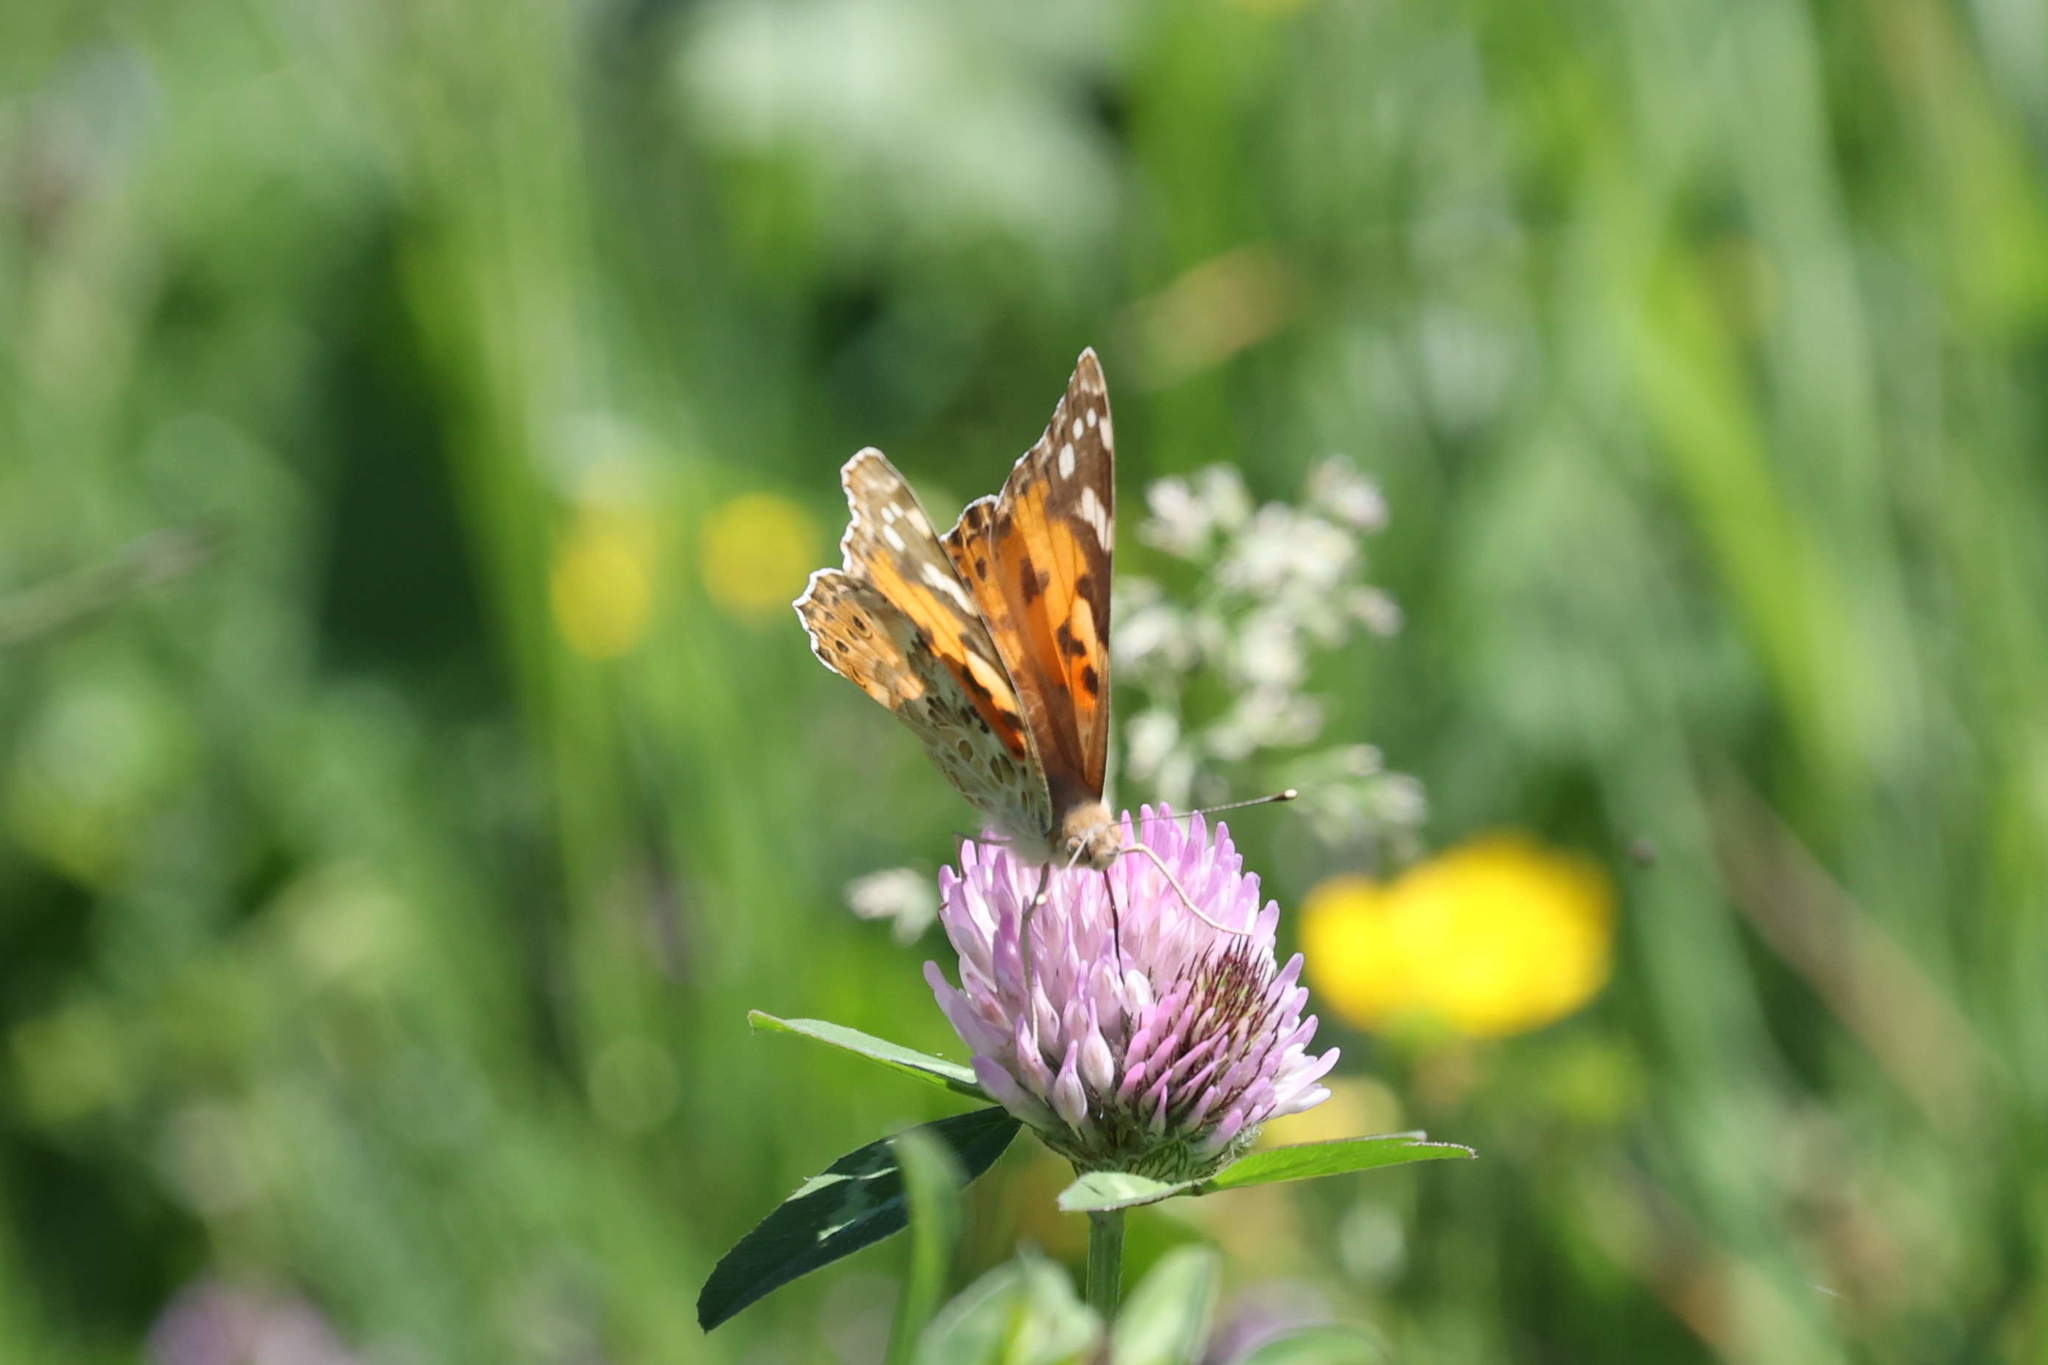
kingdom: Animalia
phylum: Arthropoda
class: Insecta
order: Lepidoptera
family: Nymphalidae
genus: Vanessa
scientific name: Vanessa cardui
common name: Painted lady
